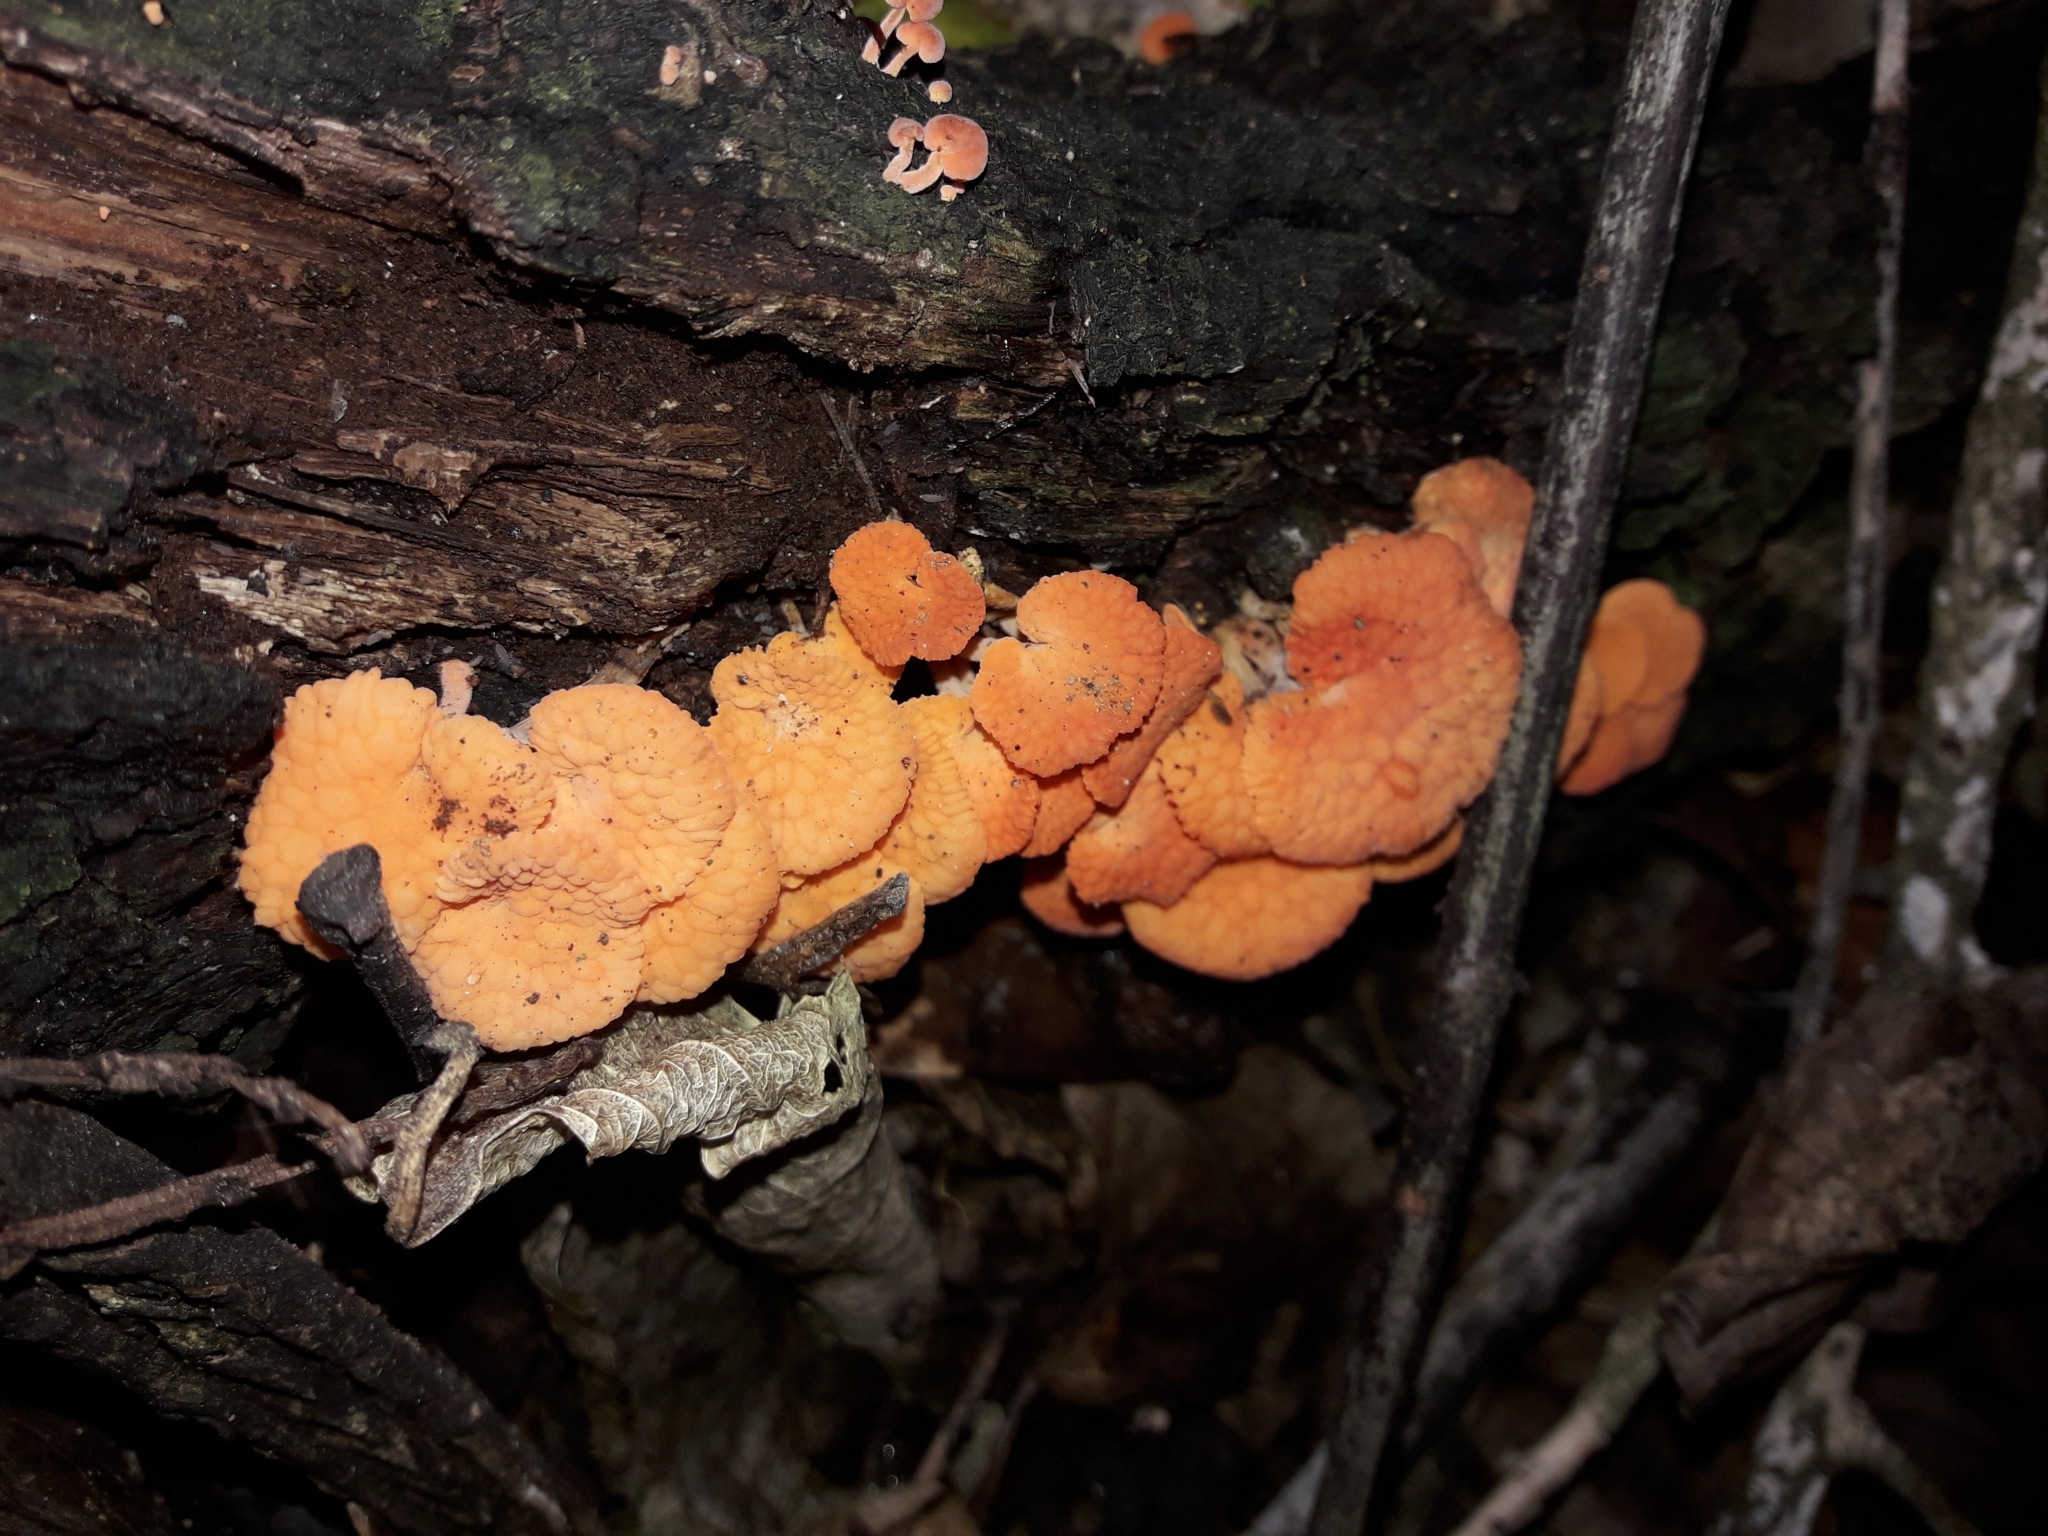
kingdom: Fungi
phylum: Basidiomycota
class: Agaricomycetes
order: Agaricales
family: Mycenaceae
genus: Favolaschia
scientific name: Favolaschia claudopus
